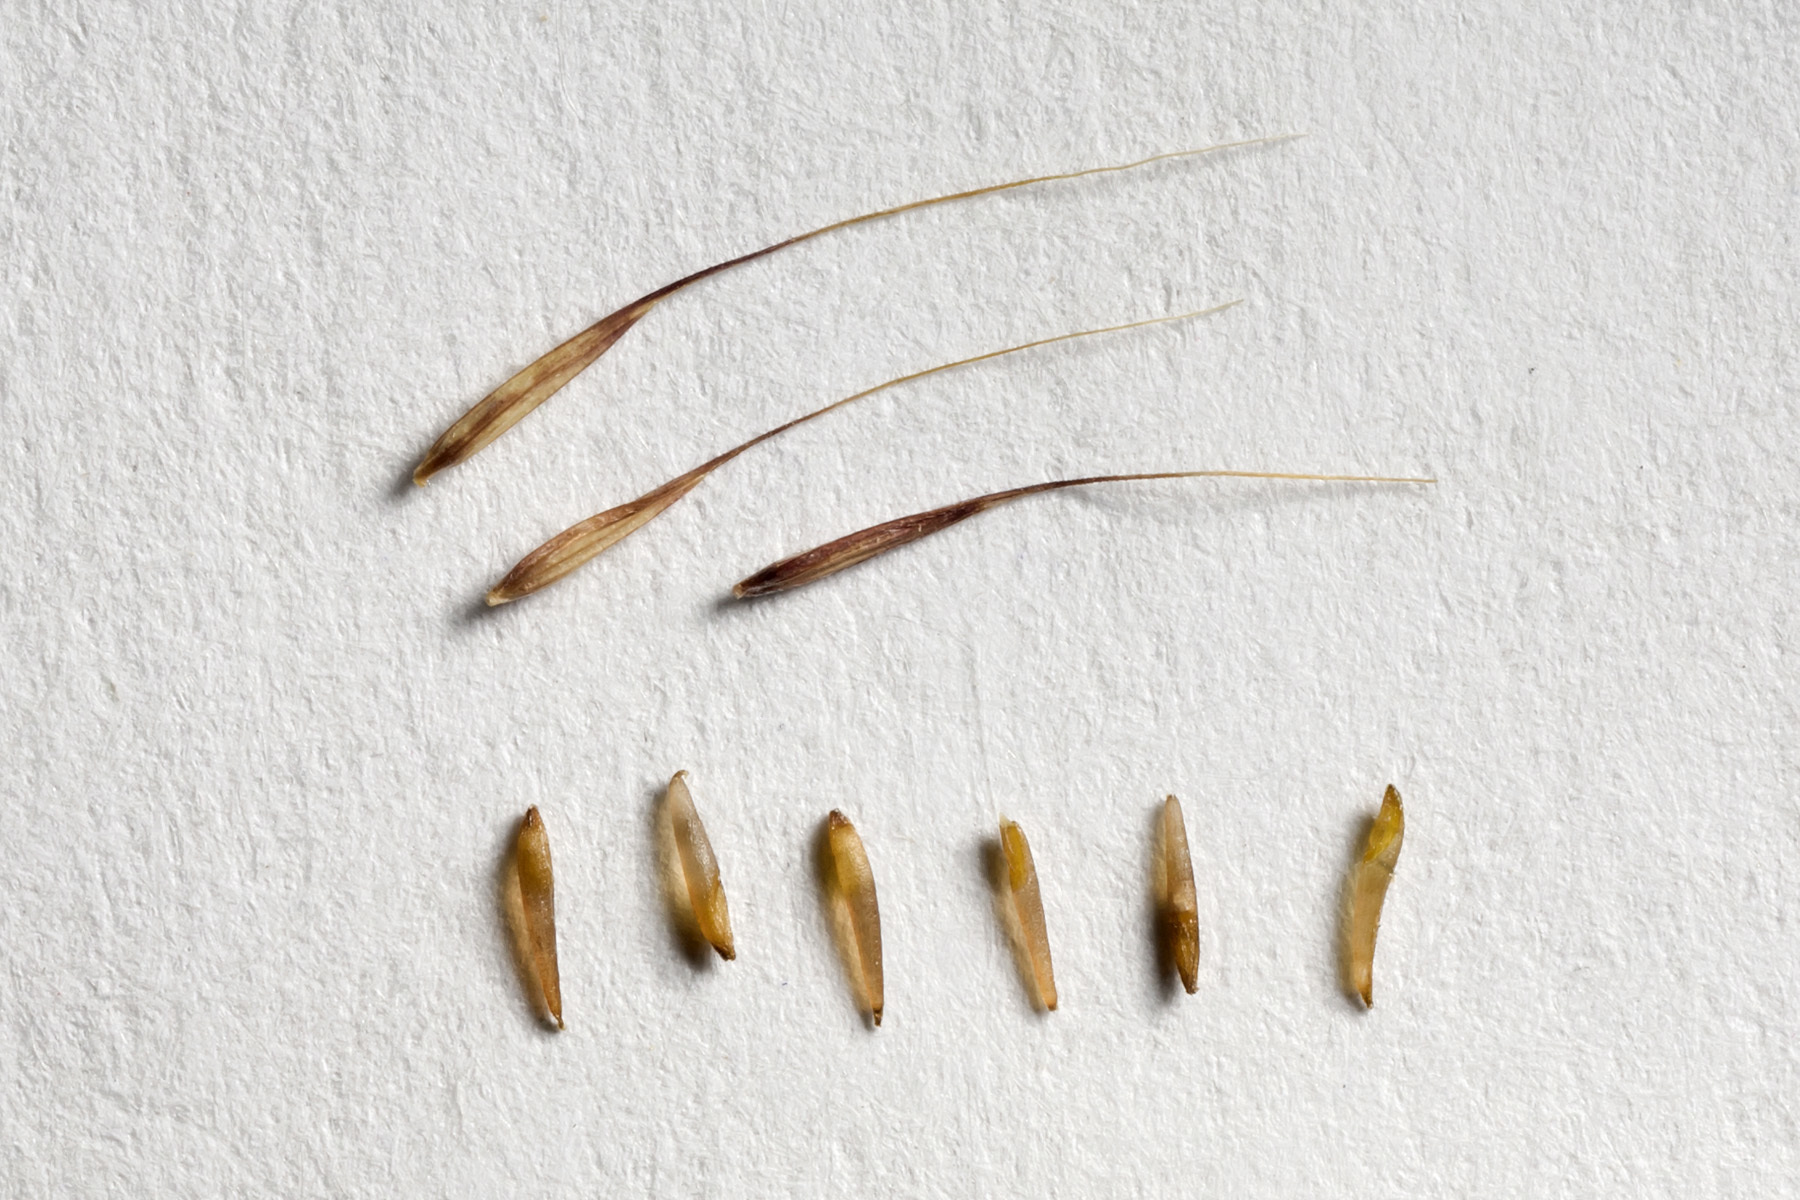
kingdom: Plantae
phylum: Tracheophyta
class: Liliopsida
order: Poales
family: Poaceae
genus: Muhlenbergia
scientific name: Muhlenbergia porteri
